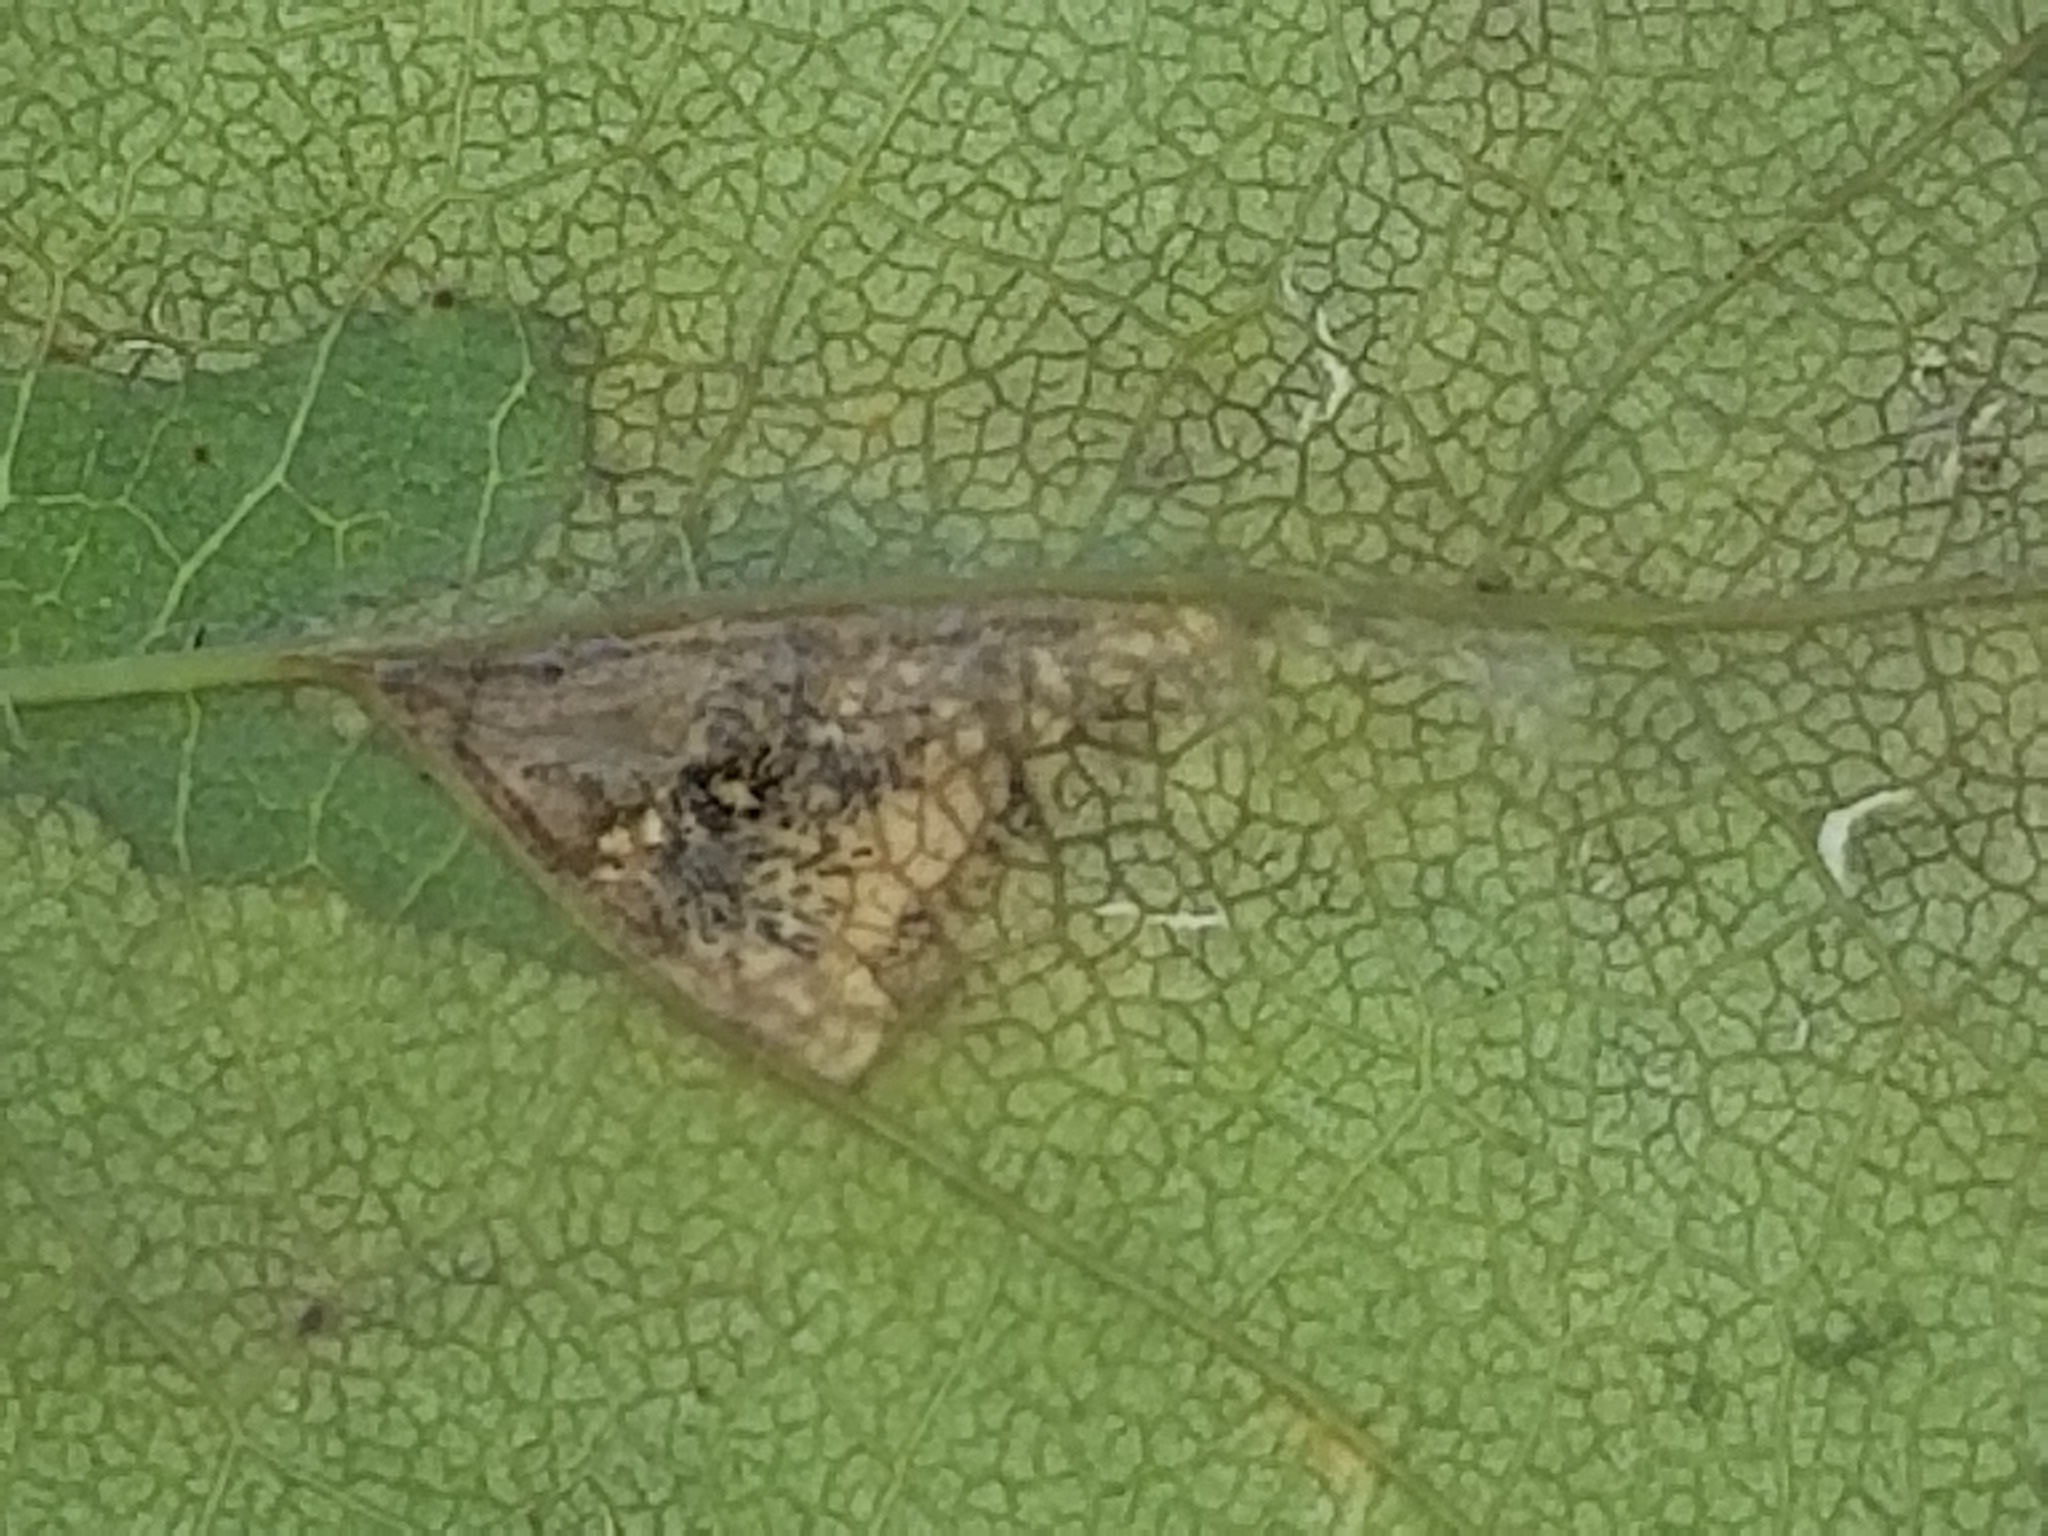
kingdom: Animalia
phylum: Arthropoda
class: Insecta
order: Lepidoptera
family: Gracillariidae
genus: Parectopa
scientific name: Parectopa robiniella
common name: Locust digitate leafminer
